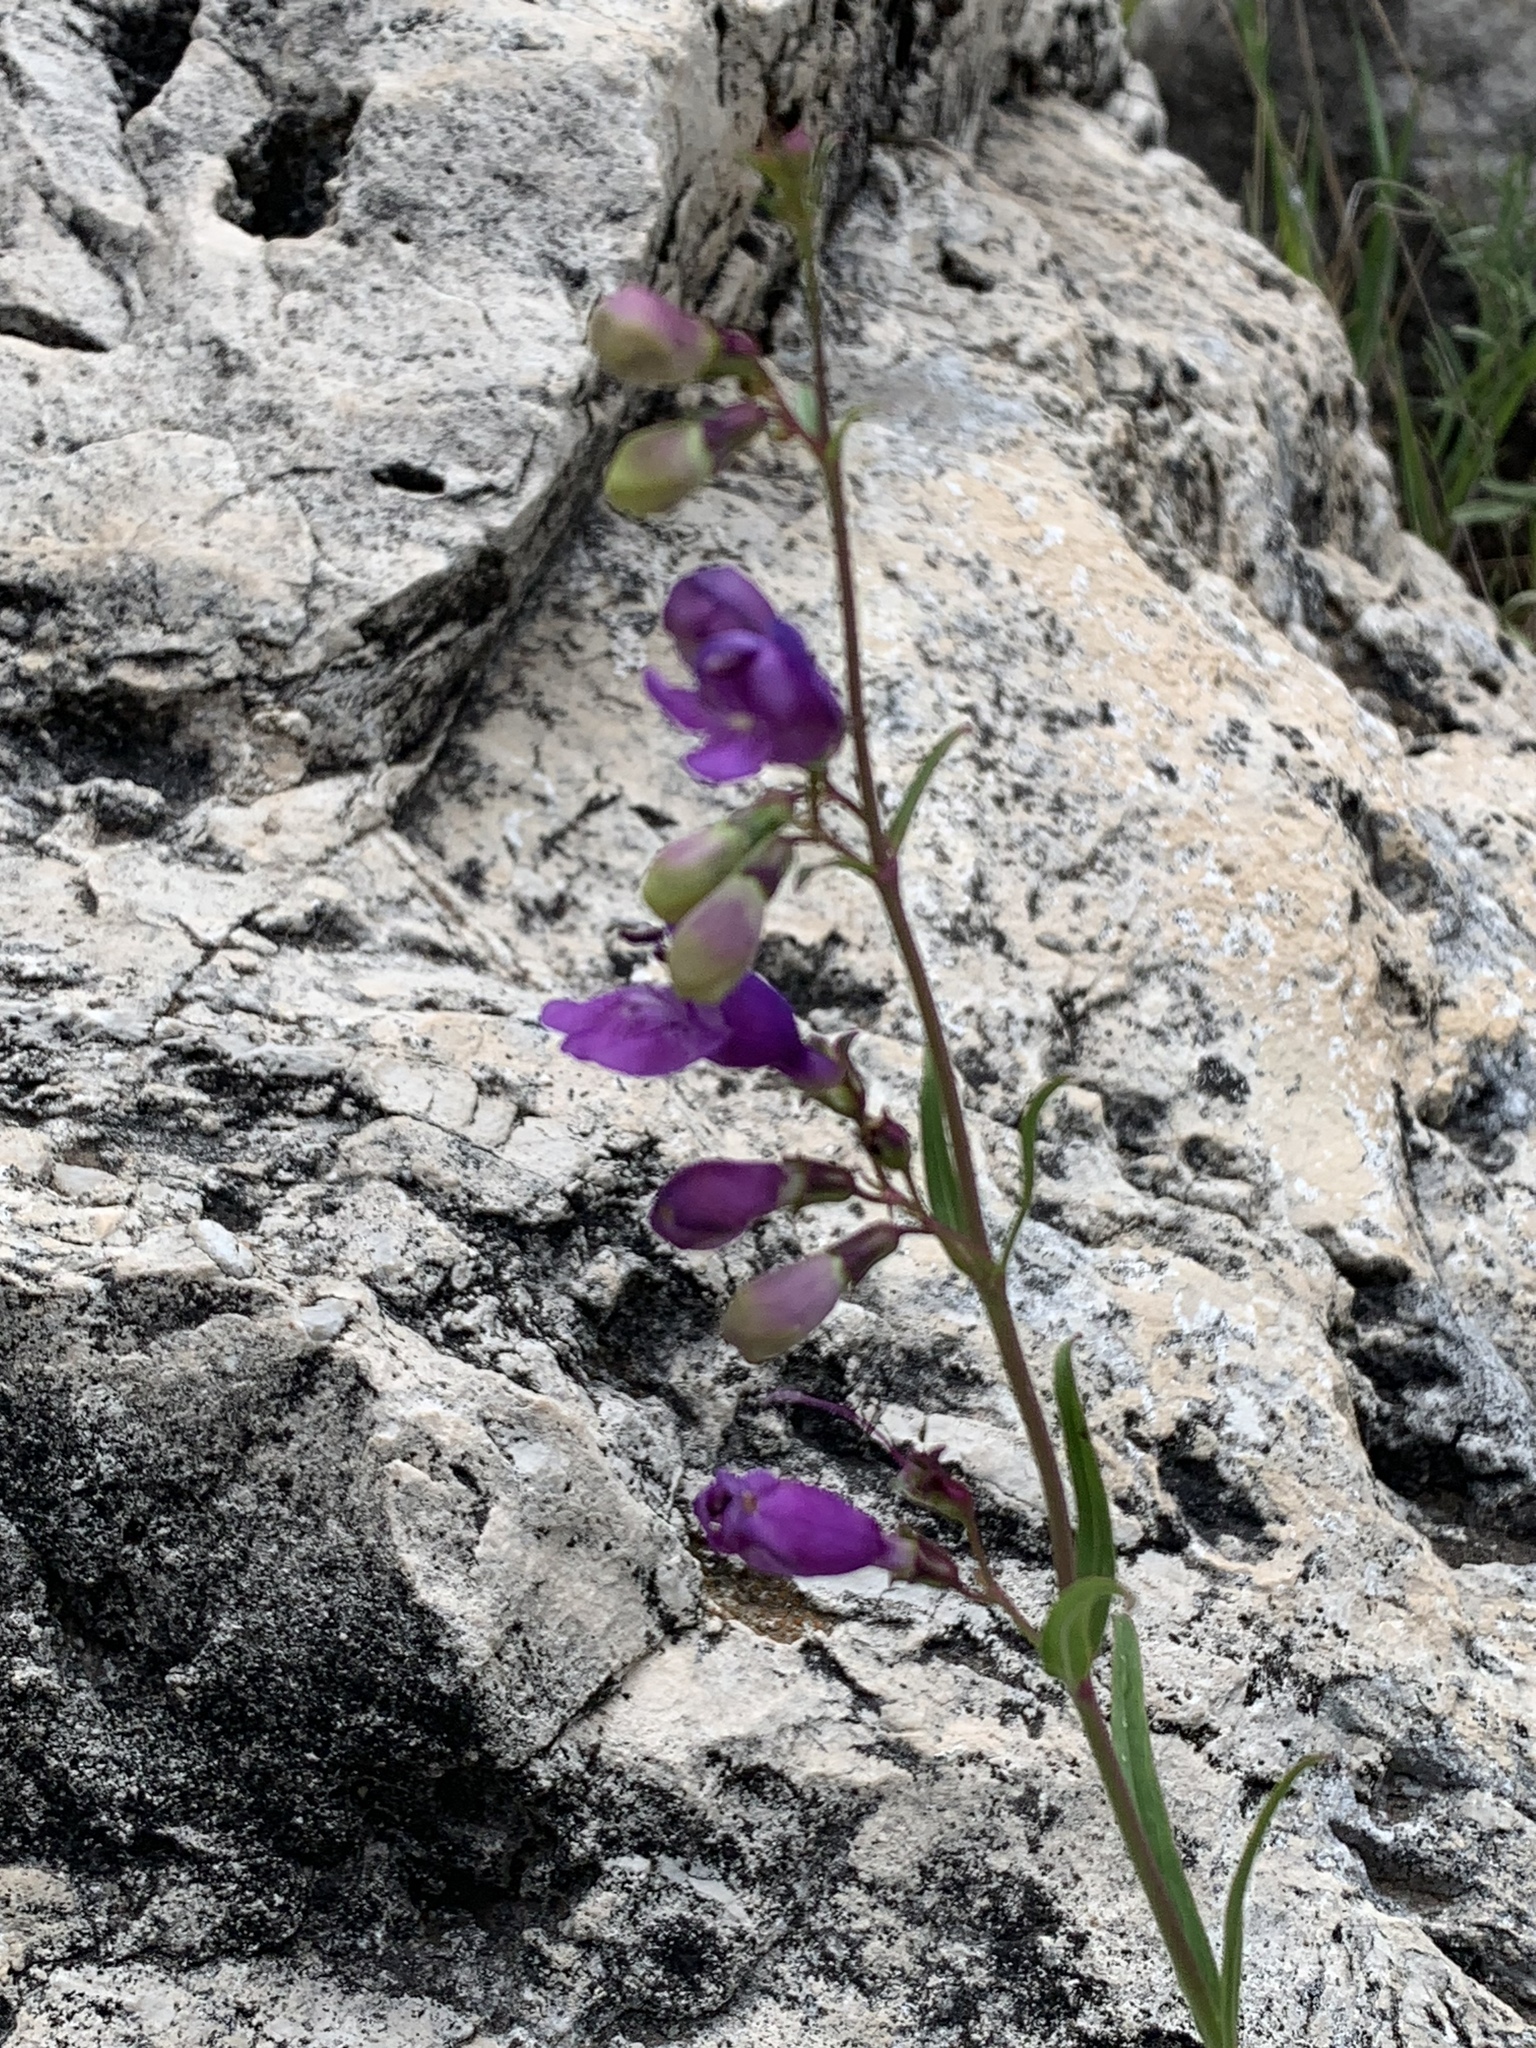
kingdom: Plantae
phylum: Tracheophyta
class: Magnoliopsida
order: Lamiales
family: Plantaginaceae
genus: Penstemon
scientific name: Penstemon neomexicanus
